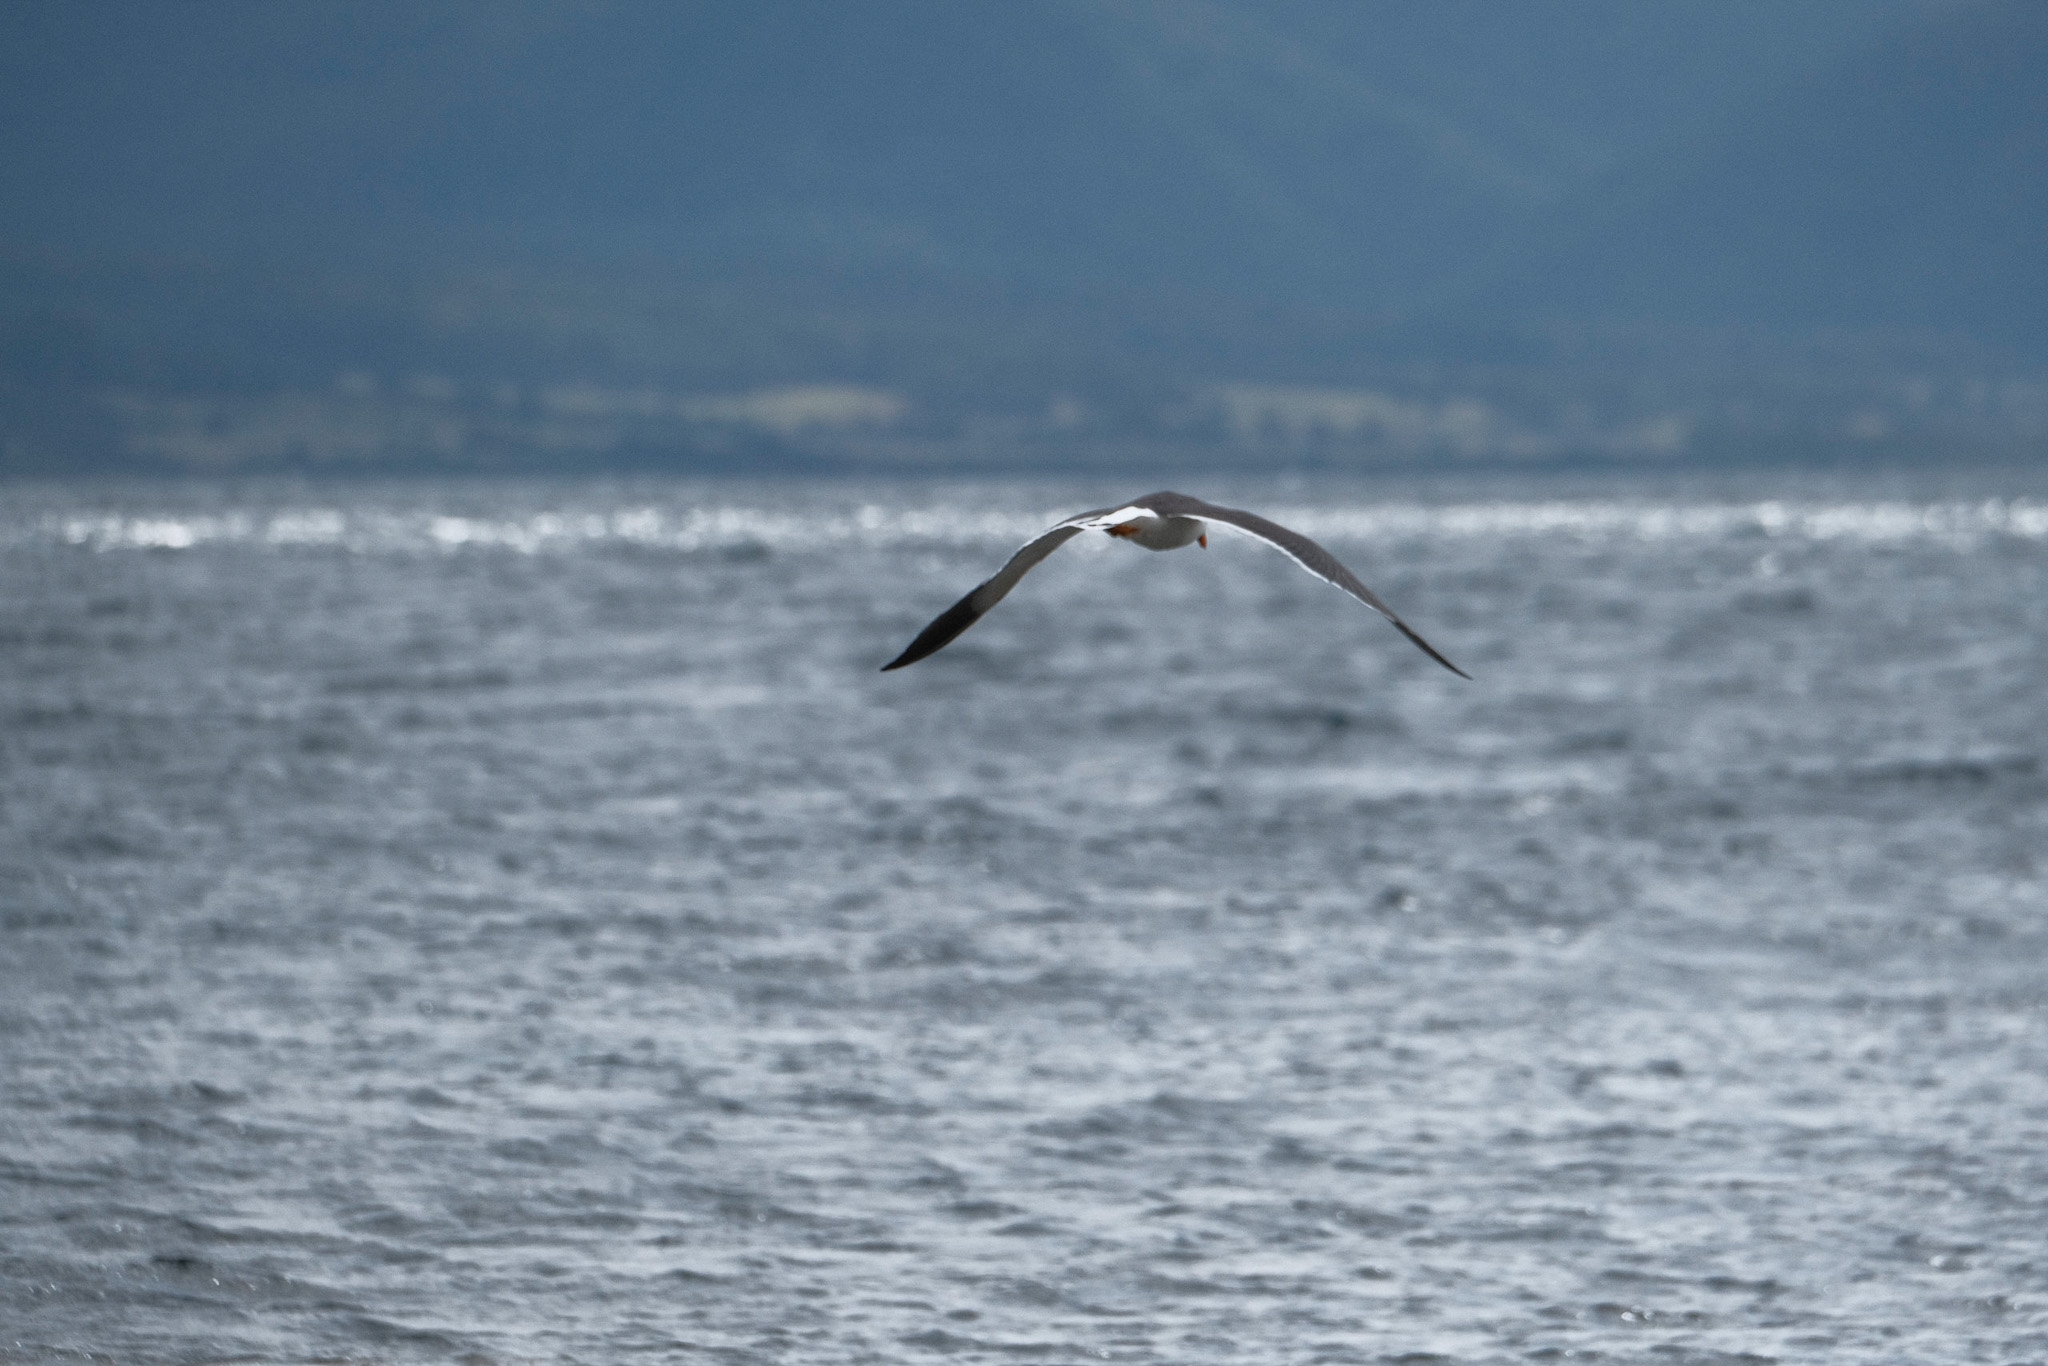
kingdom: Animalia
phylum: Chordata
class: Aves
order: Charadriiformes
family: Laridae
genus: Larus
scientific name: Larus pacificus
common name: Pacific gull
